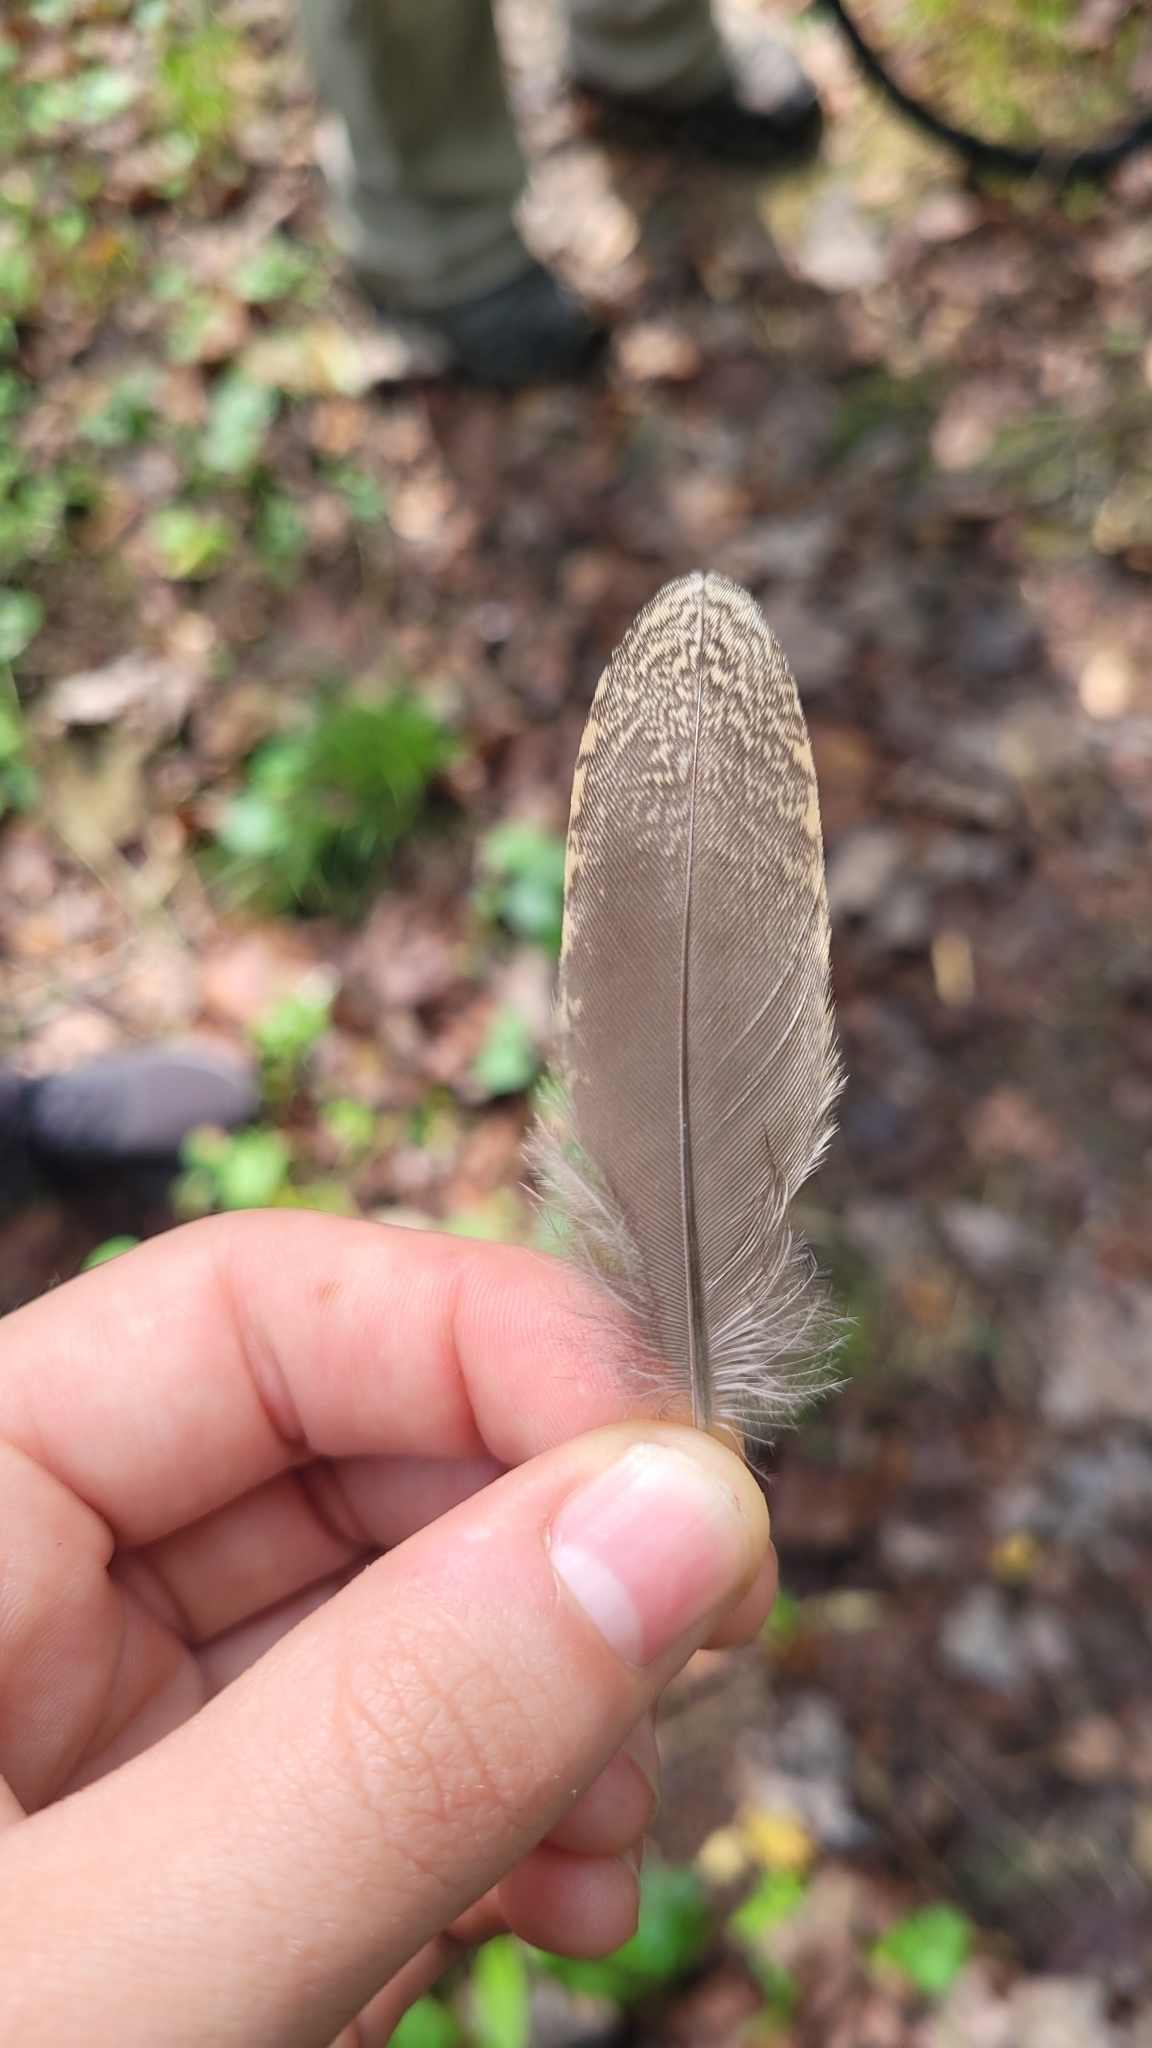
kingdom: Animalia
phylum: Chordata
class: Aves
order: Charadriiformes
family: Scolopacidae
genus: Scolopax
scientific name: Scolopax minor
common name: American woodcock
